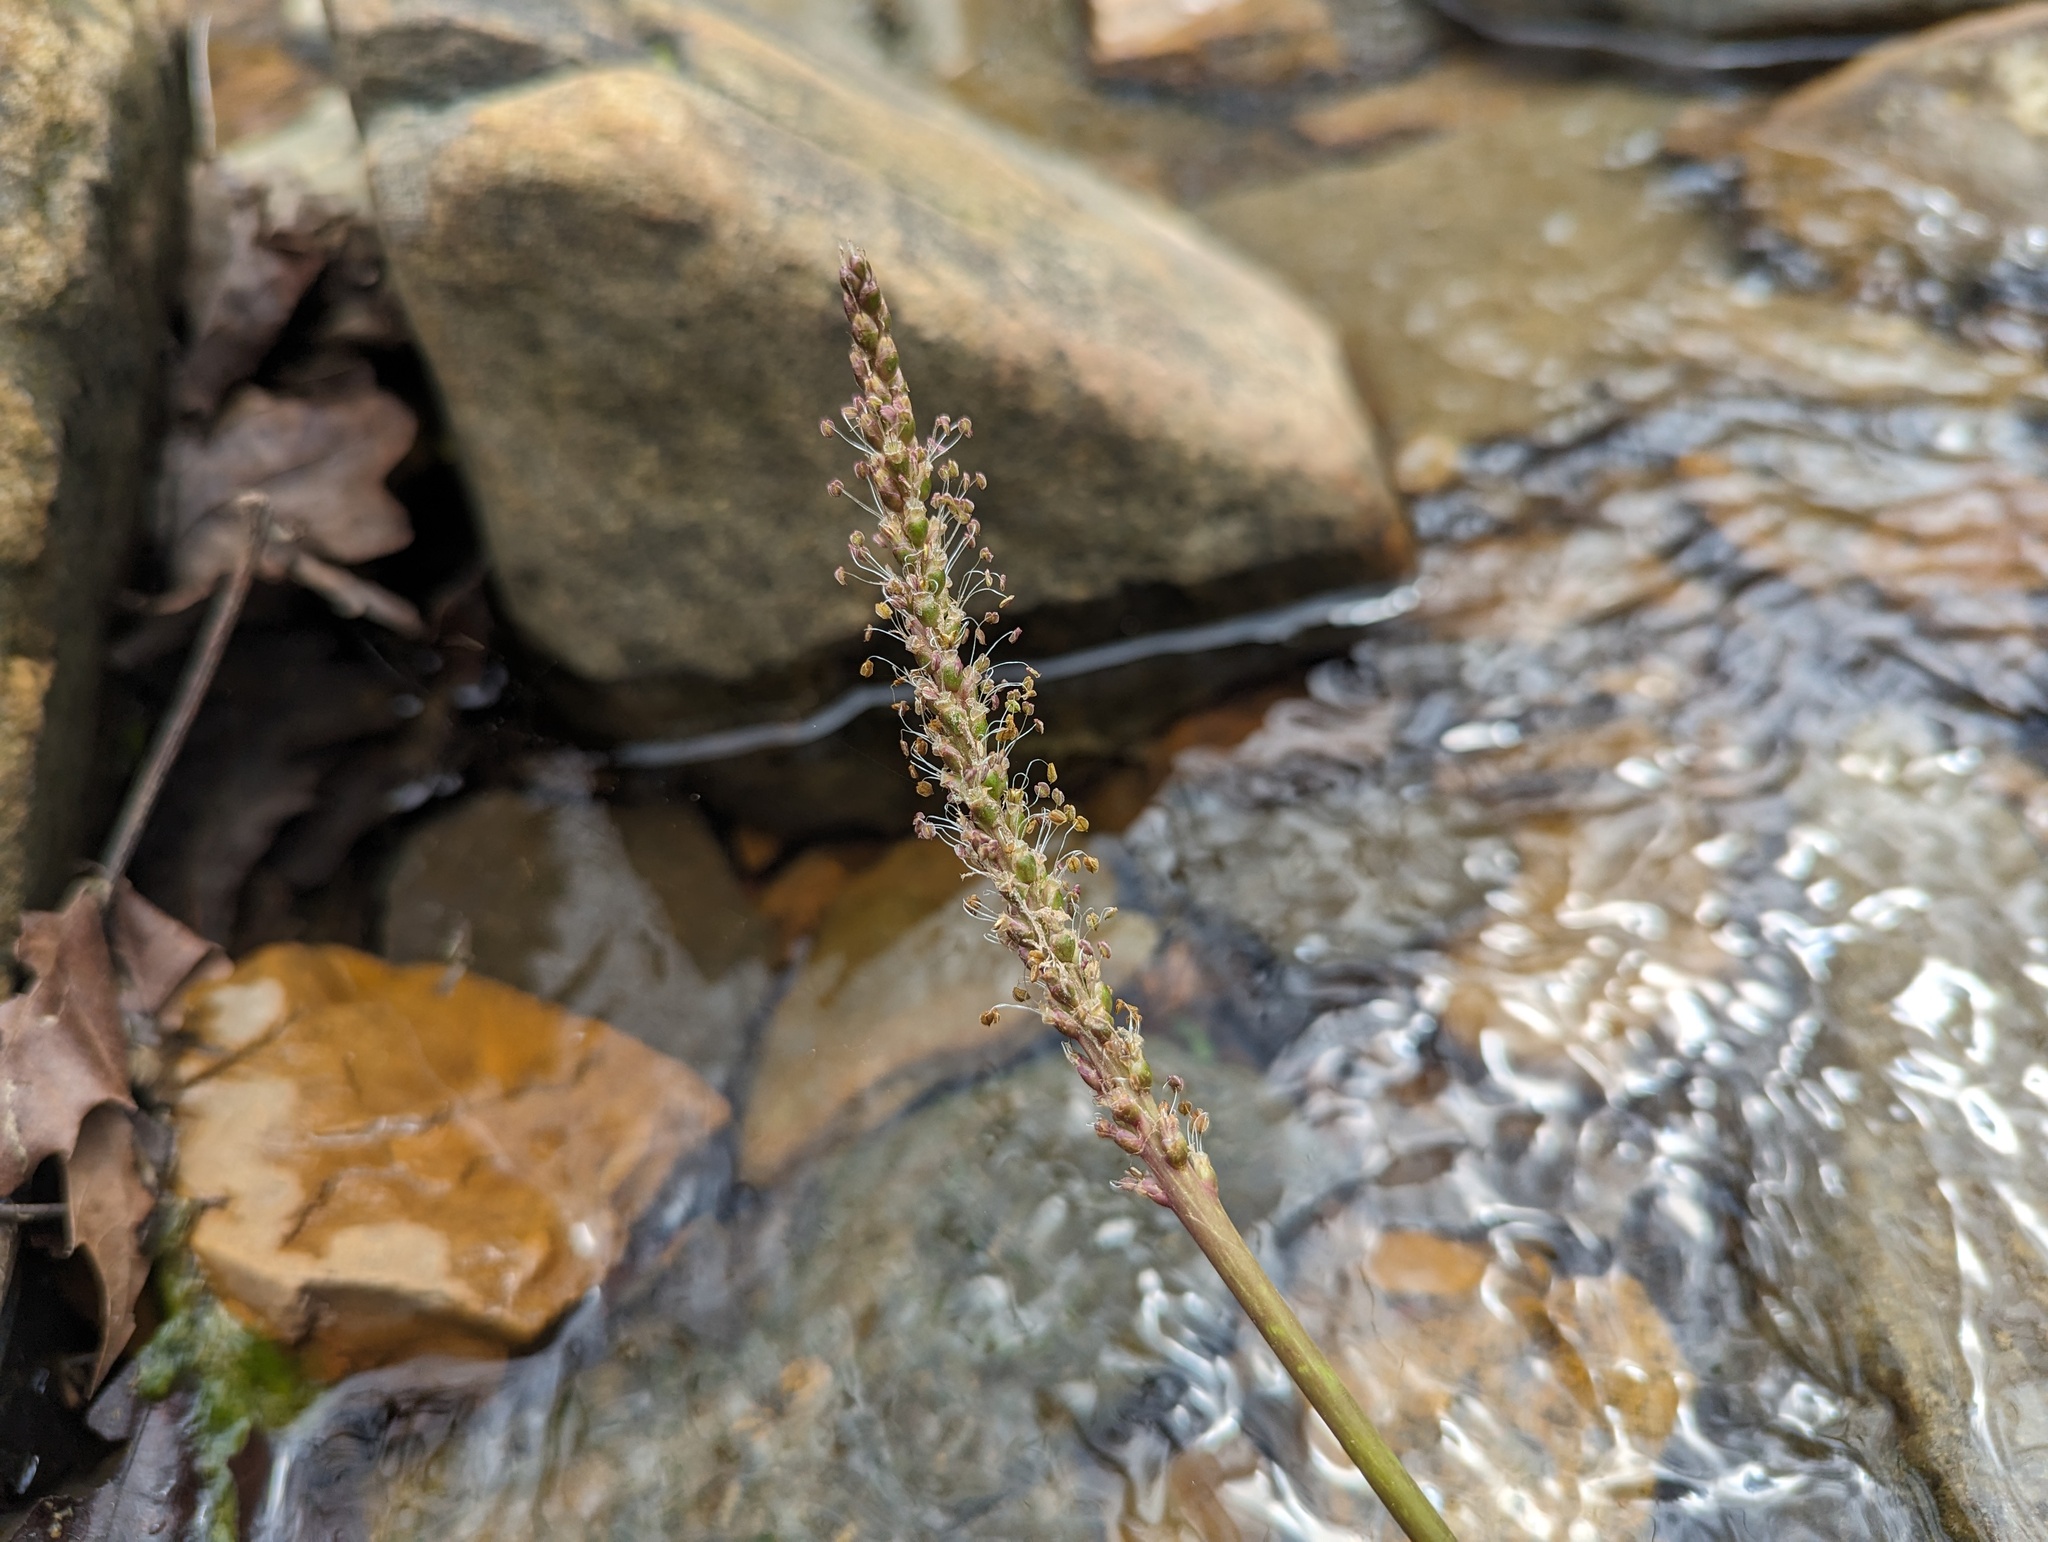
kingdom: Plantae
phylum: Tracheophyta
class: Magnoliopsida
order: Lamiales
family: Plantaginaceae
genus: Plantago
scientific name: Plantago cordata
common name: Kingroot
